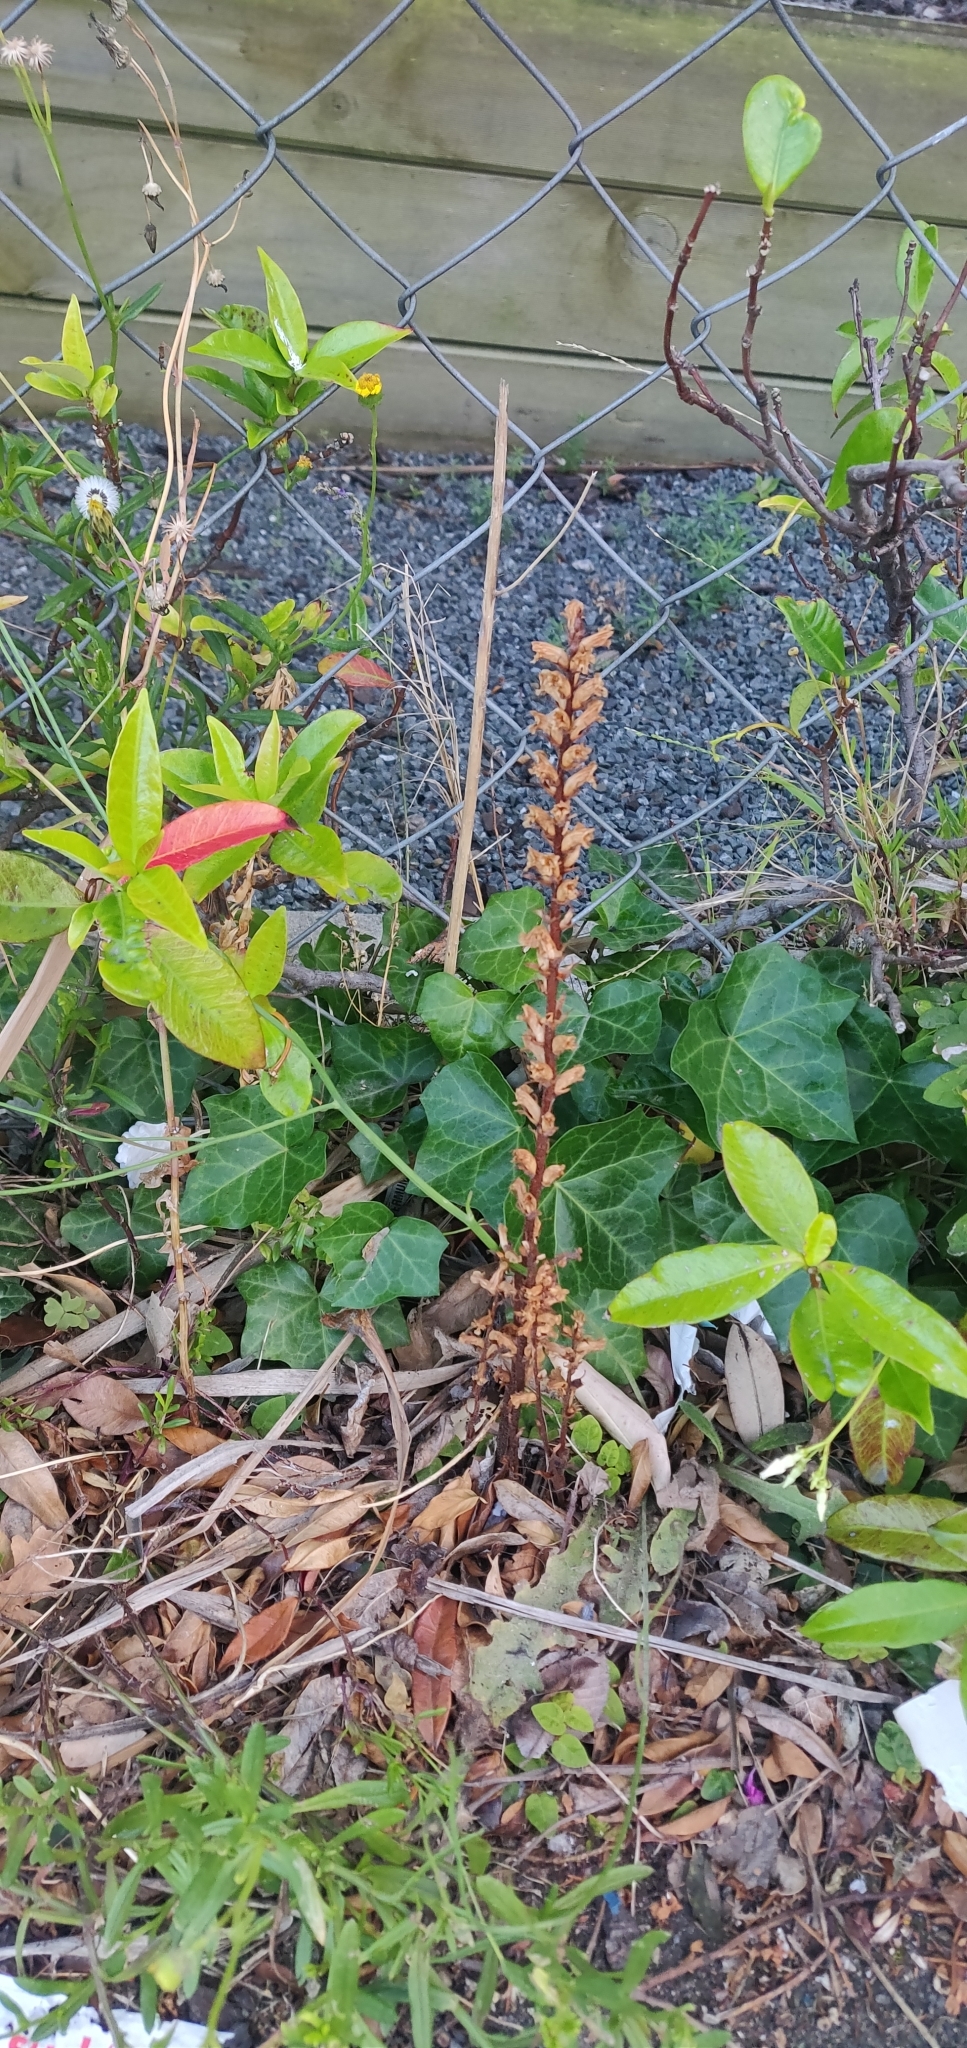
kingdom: Plantae
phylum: Tracheophyta
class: Magnoliopsida
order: Lamiales
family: Orobanchaceae
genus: Orobanche
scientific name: Orobanche minor
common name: Common broomrape
